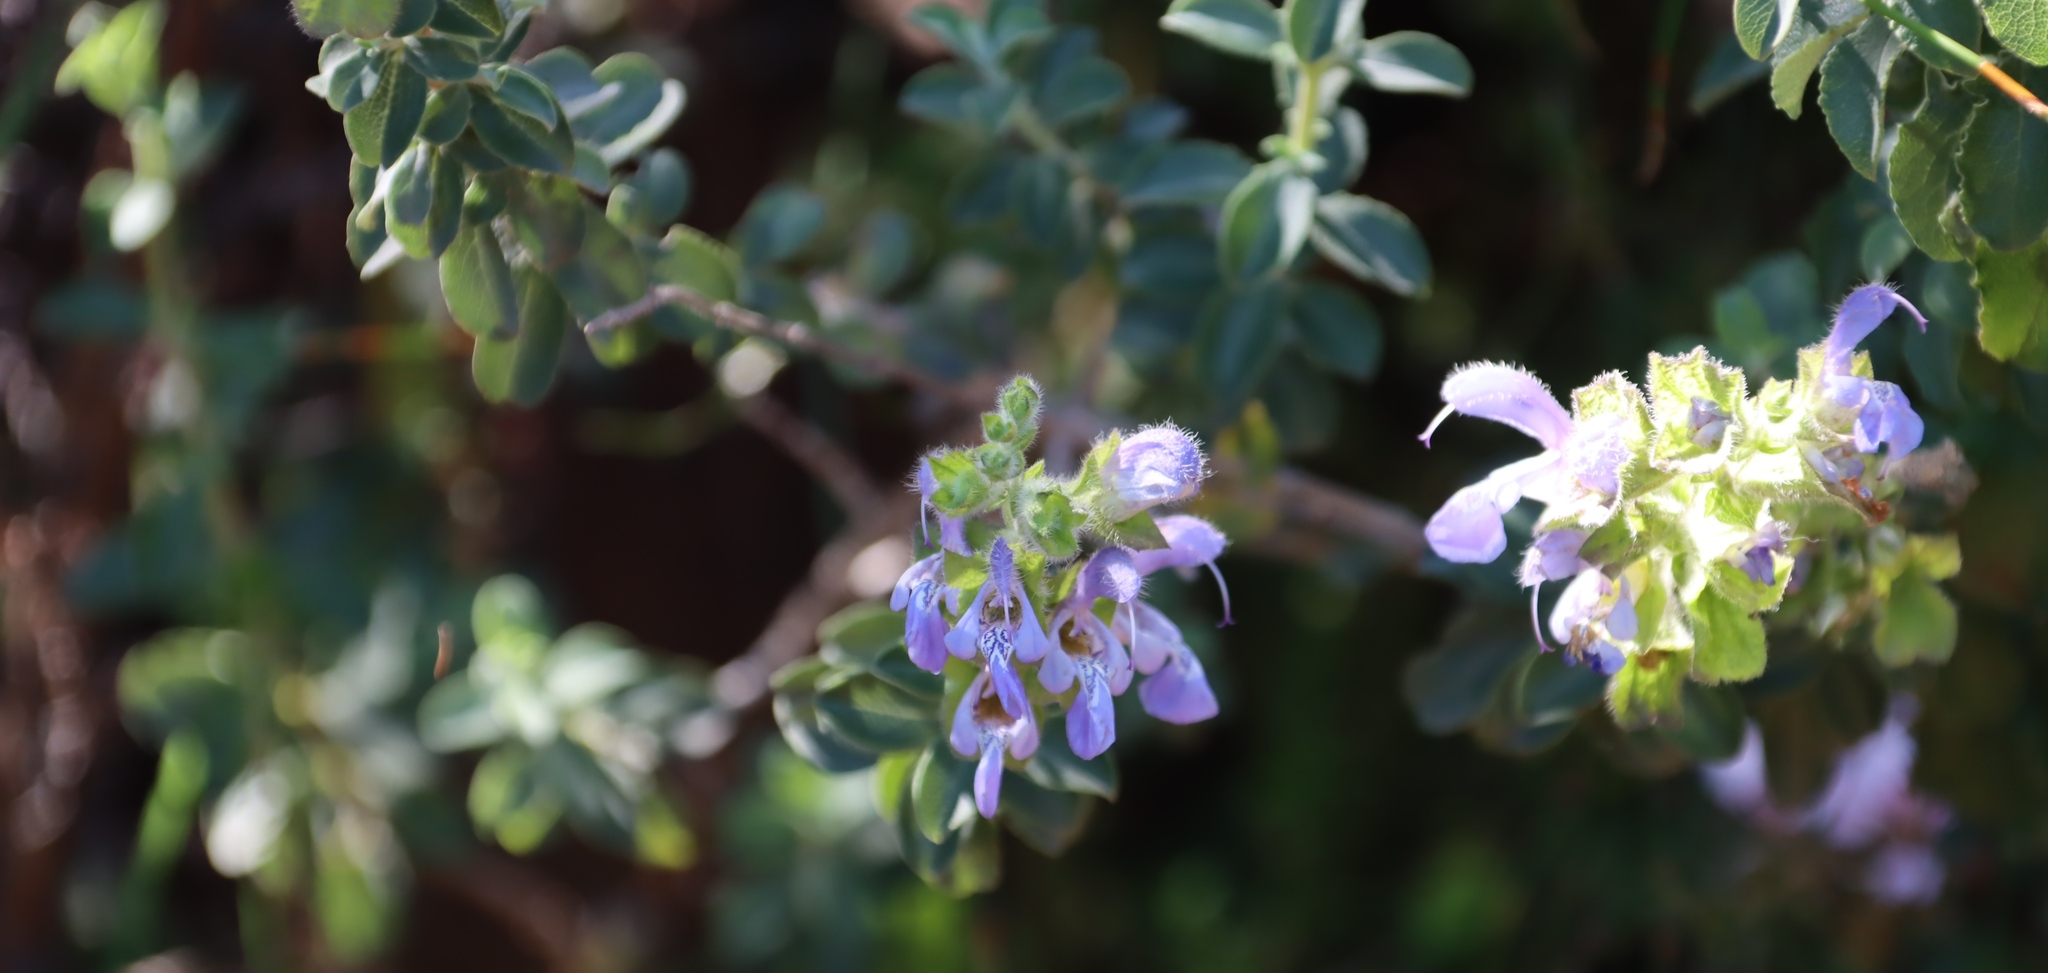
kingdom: Plantae
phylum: Tracheophyta
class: Magnoliopsida
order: Lamiales
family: Lamiaceae
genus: Salvia
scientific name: Salvia africana
